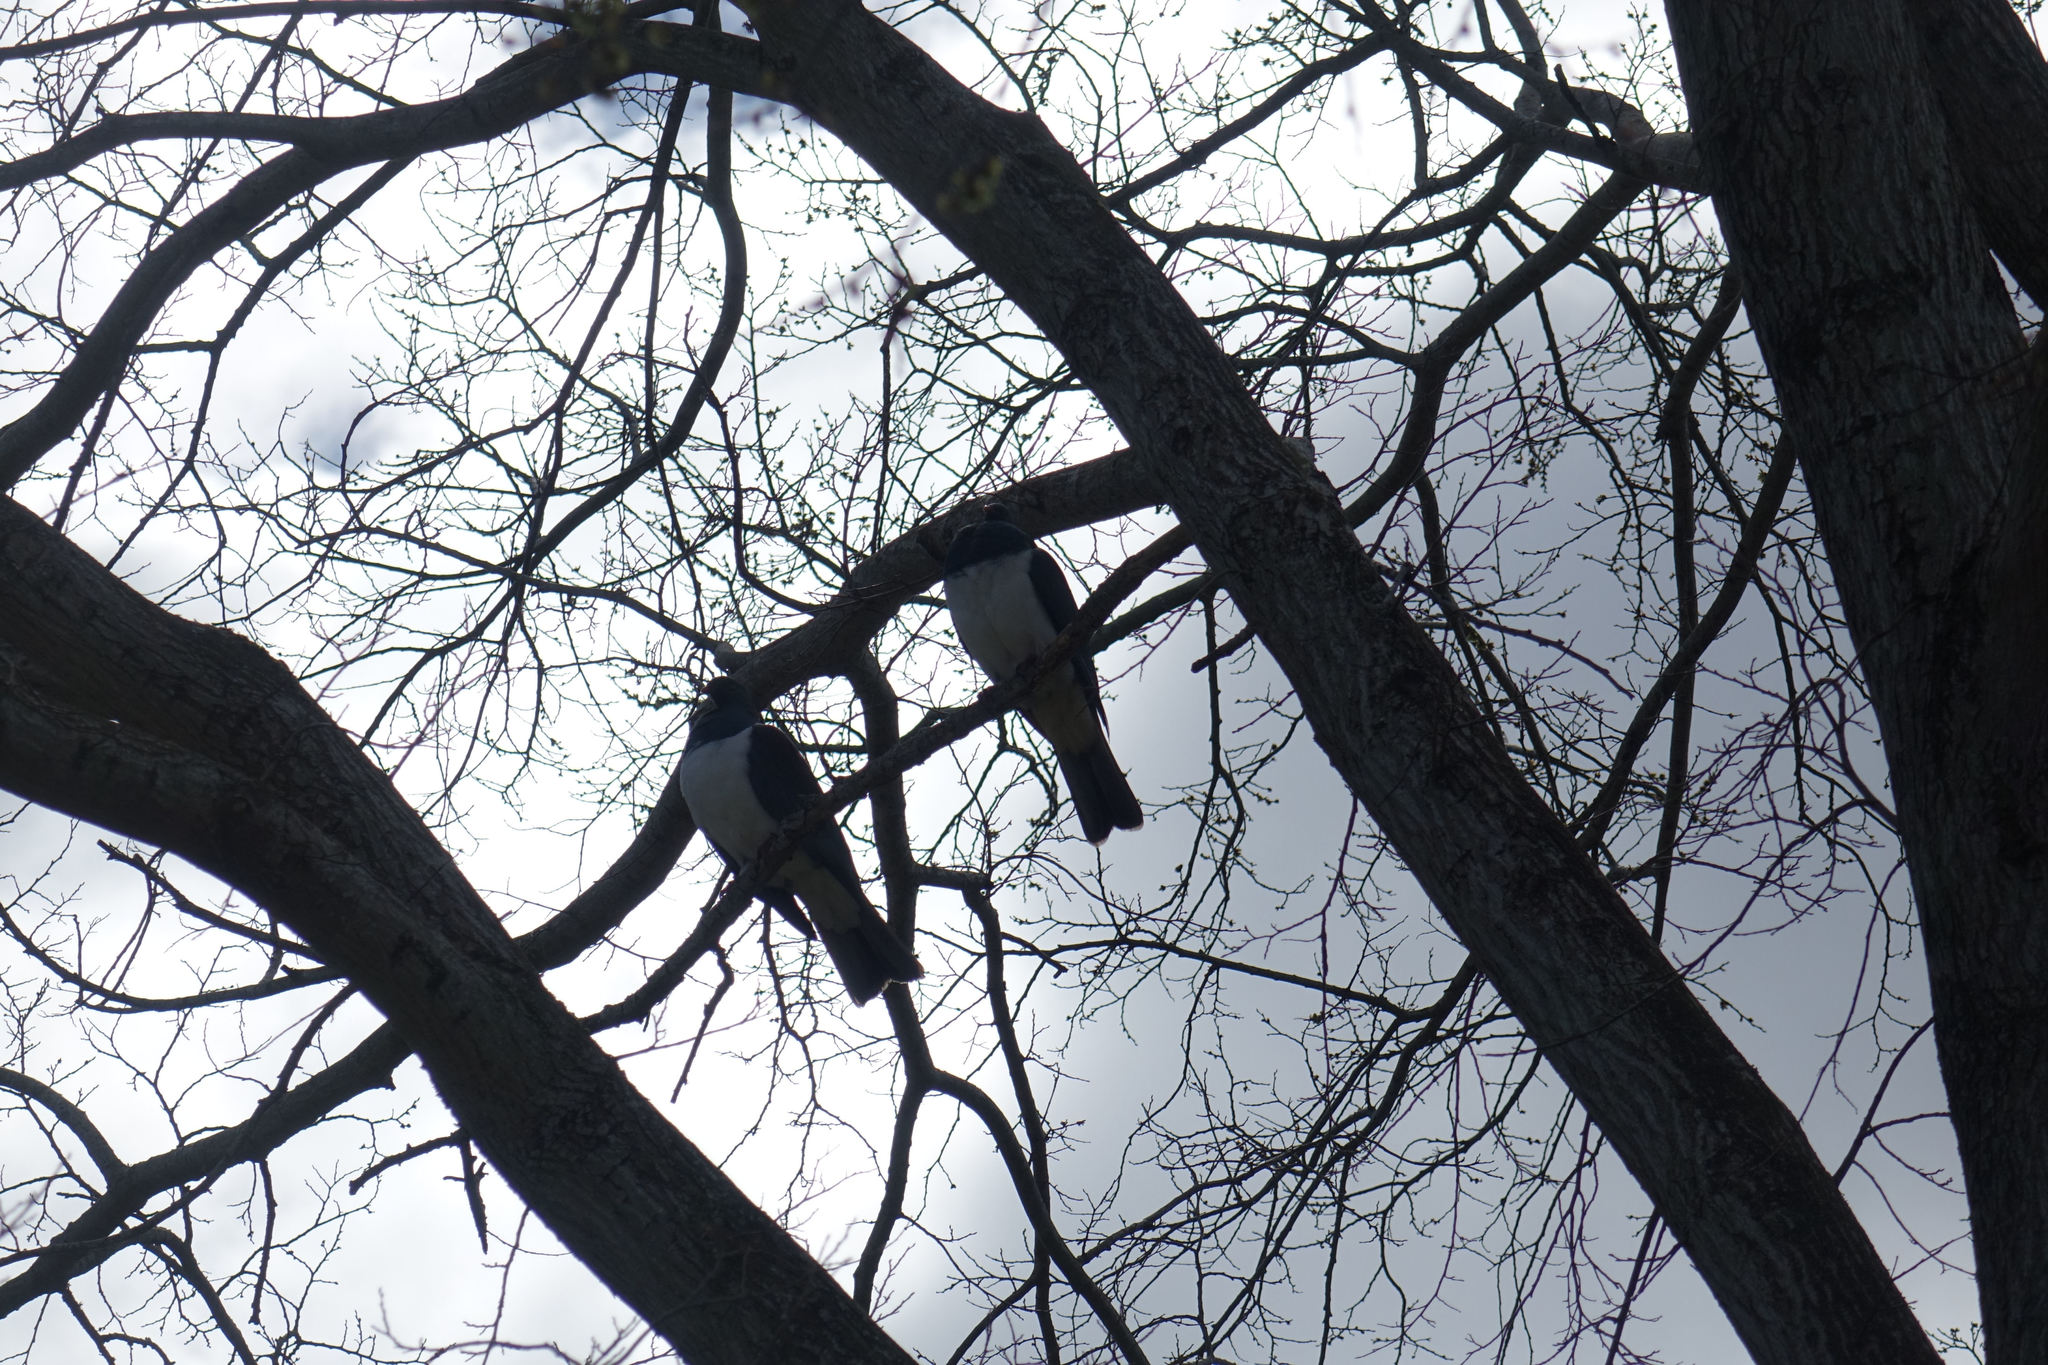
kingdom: Animalia
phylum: Chordata
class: Aves
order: Columbiformes
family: Columbidae
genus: Hemiphaga
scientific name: Hemiphaga novaeseelandiae
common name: New zealand pigeon
